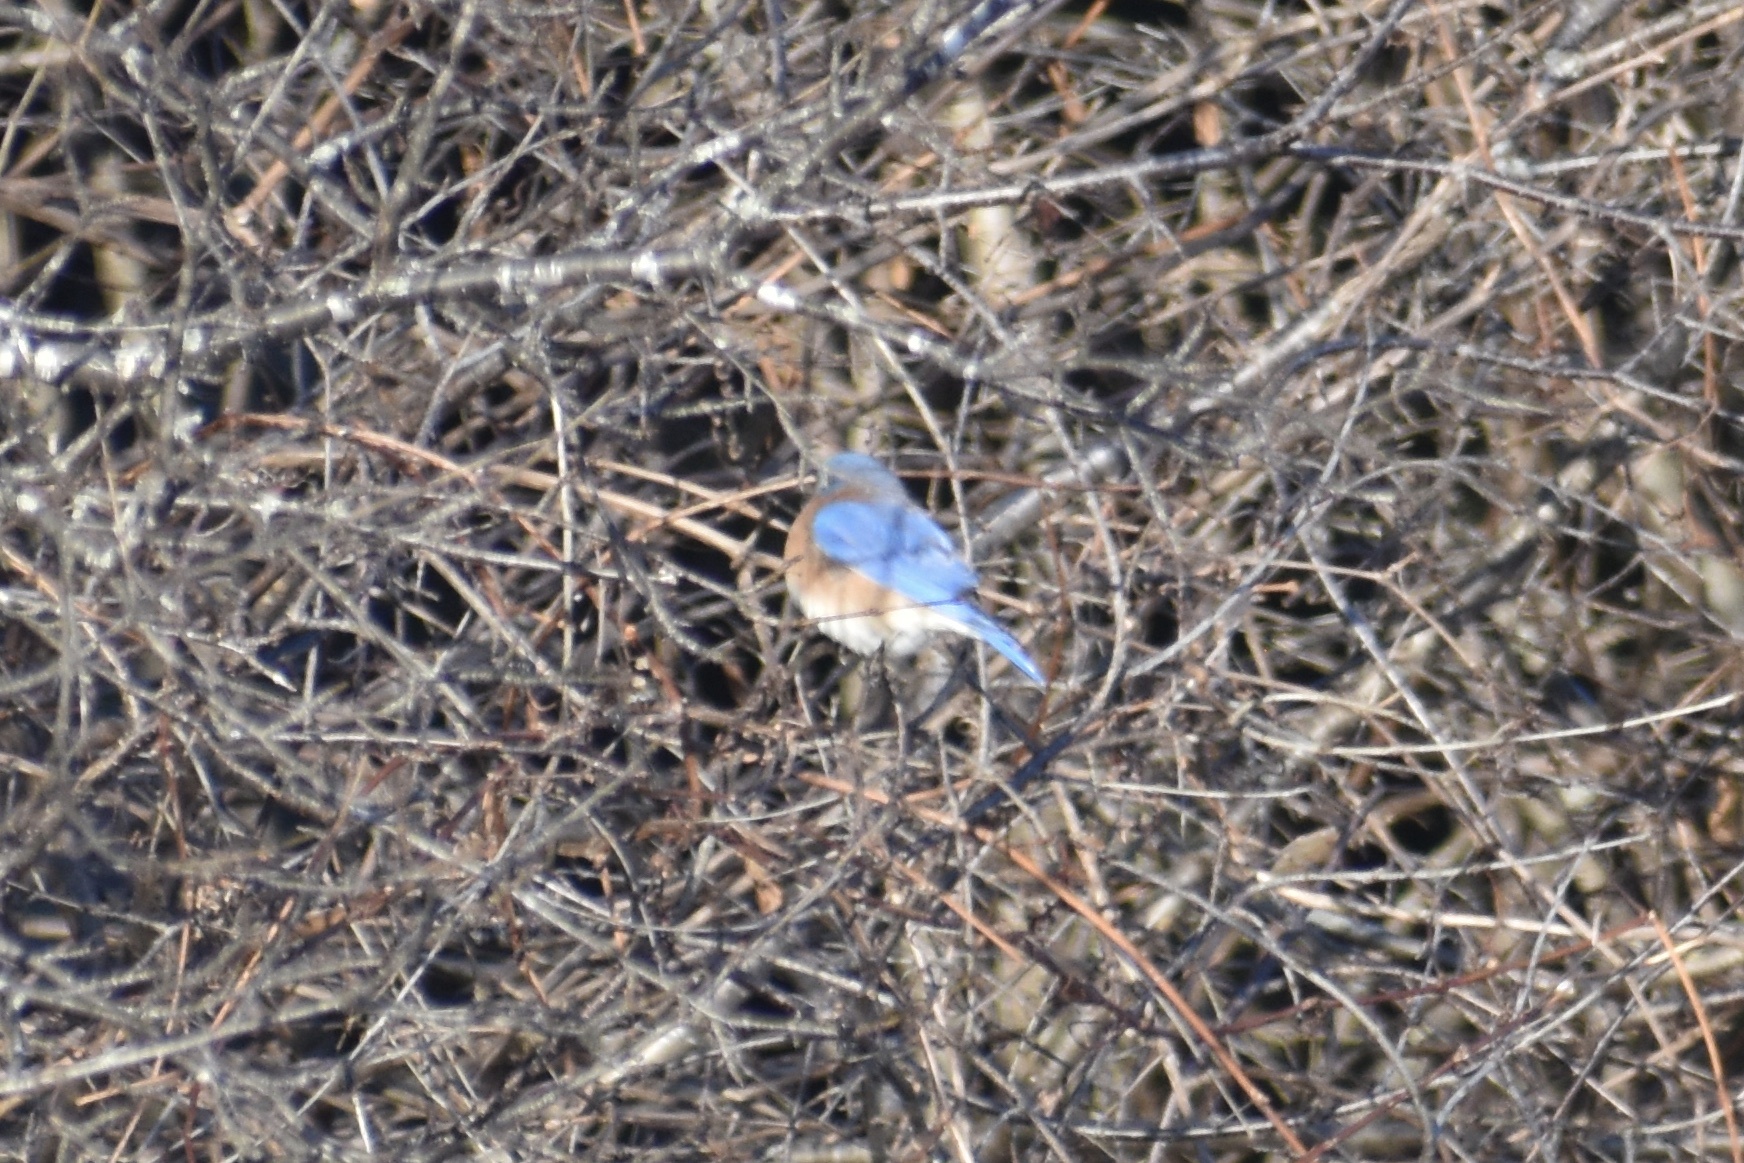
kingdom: Animalia
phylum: Chordata
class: Aves
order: Passeriformes
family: Turdidae
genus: Sialia
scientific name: Sialia sialis
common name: Eastern bluebird
